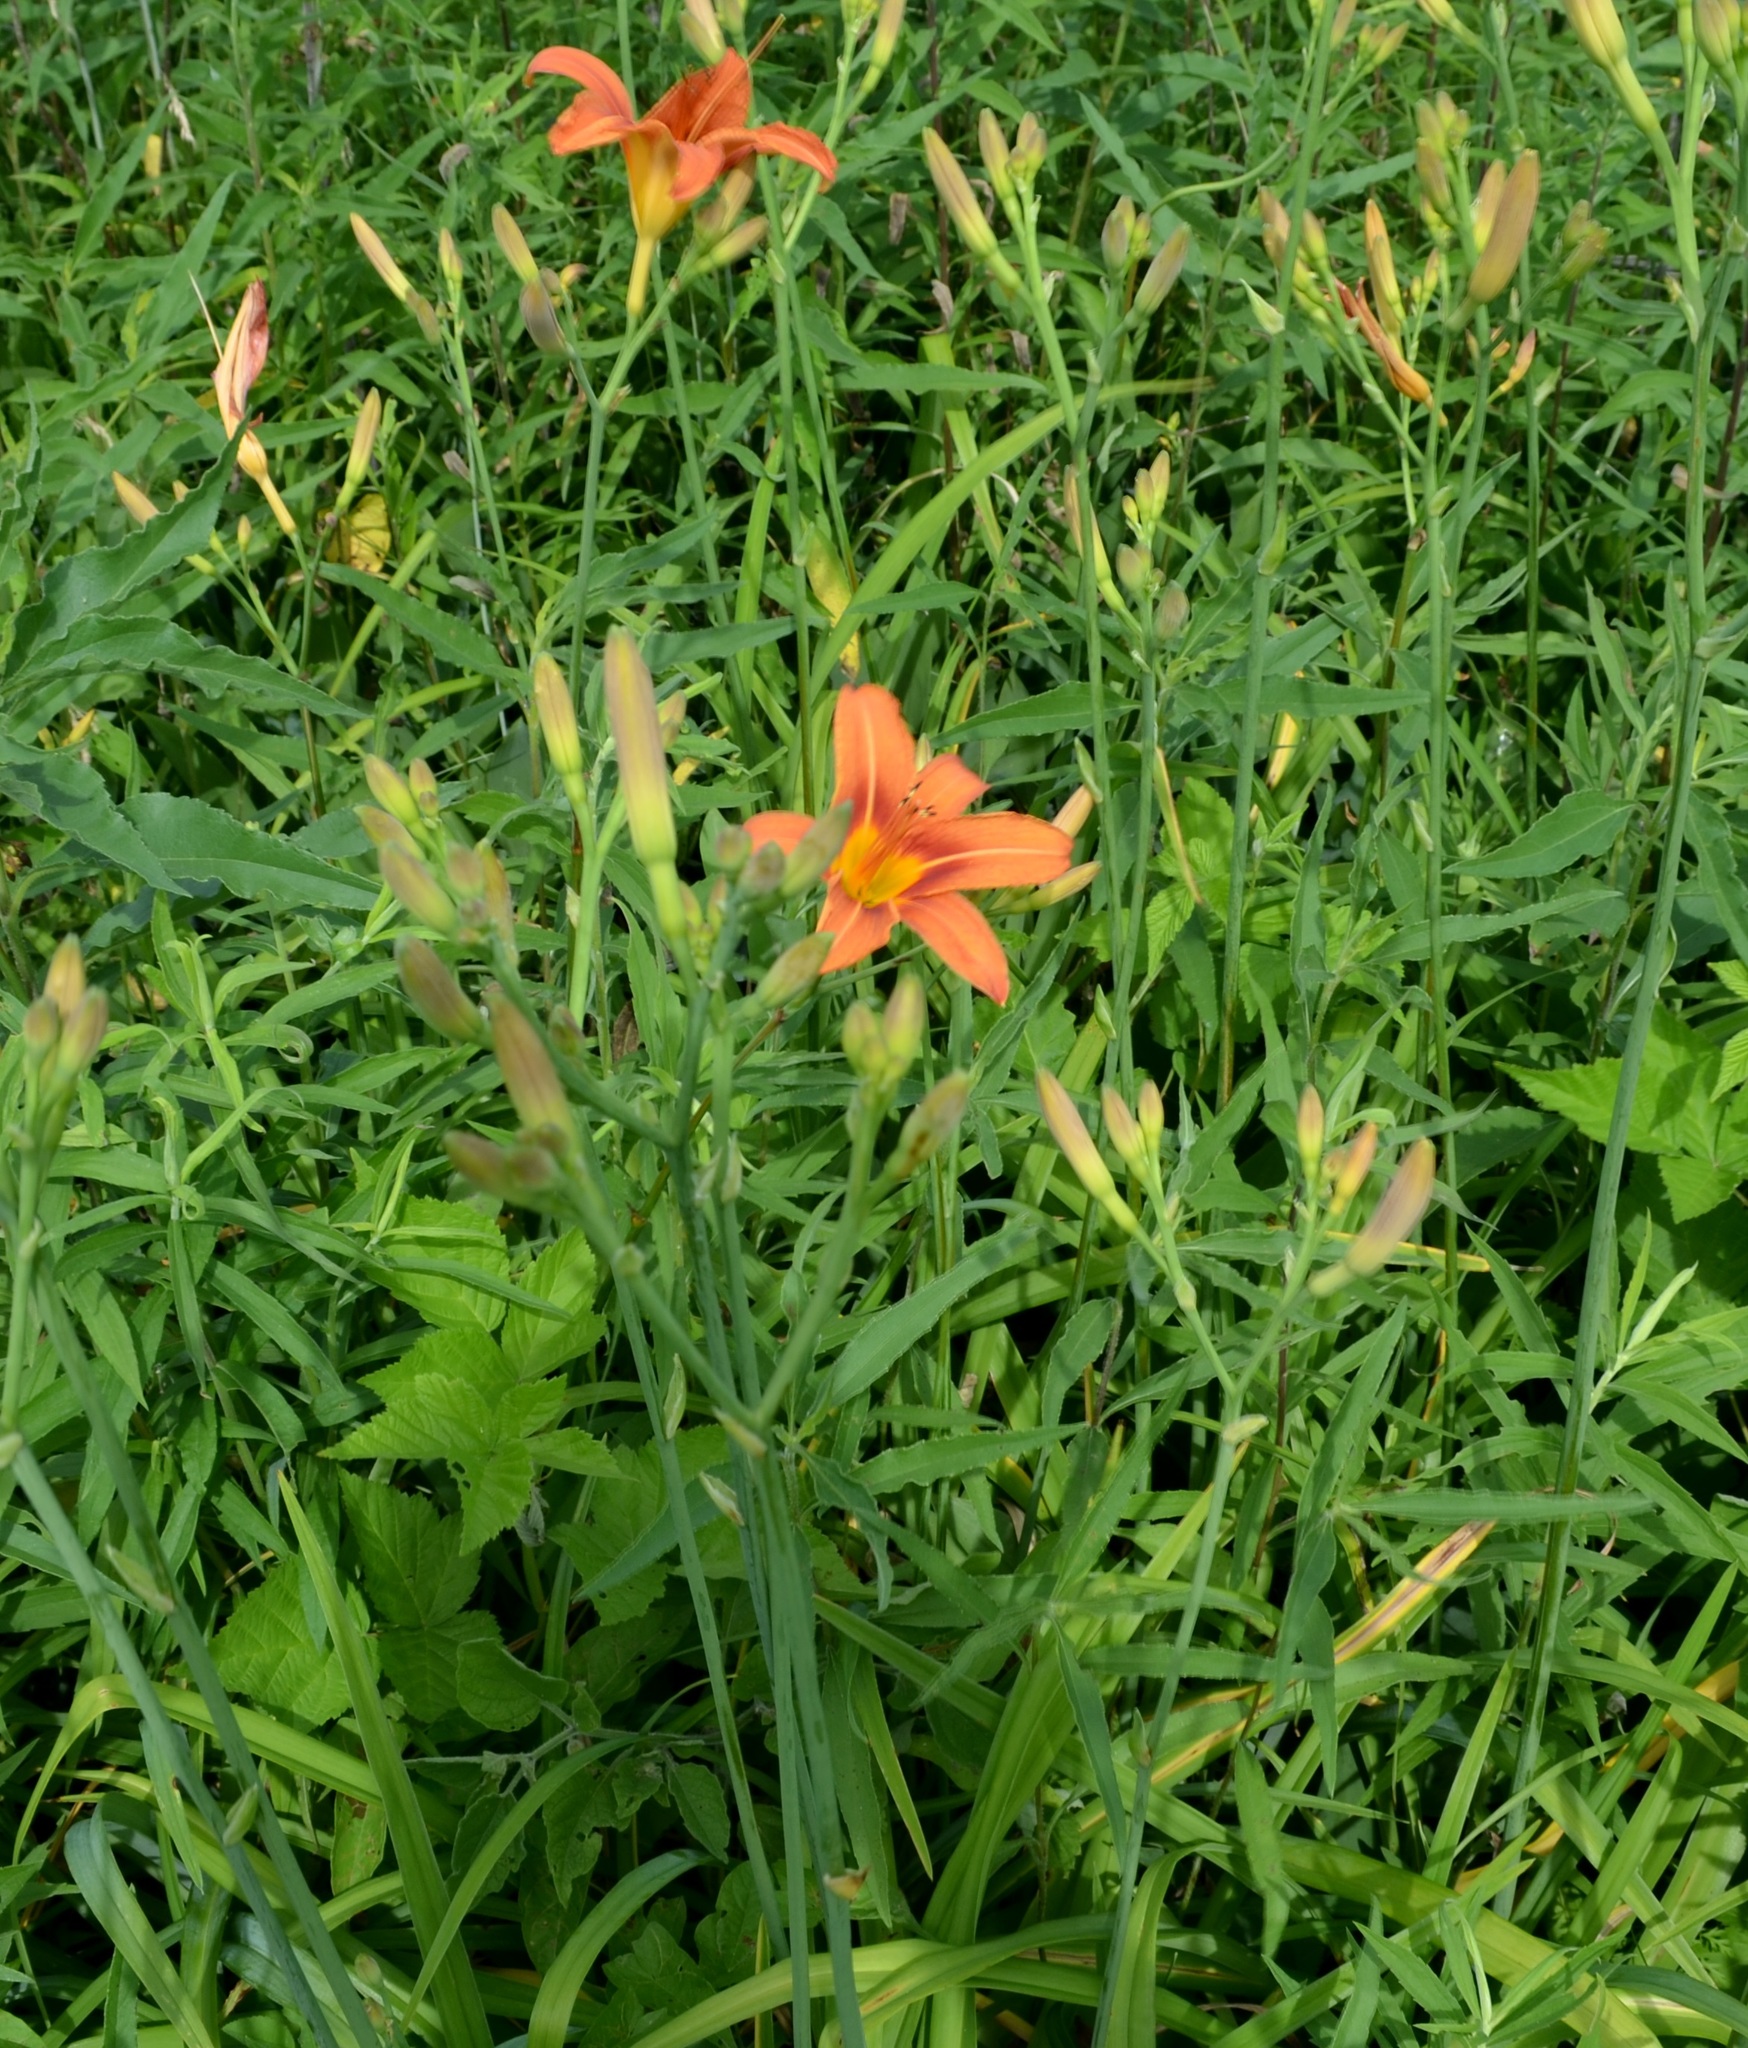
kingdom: Plantae
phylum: Tracheophyta
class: Liliopsida
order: Asparagales
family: Asphodelaceae
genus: Hemerocallis
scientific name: Hemerocallis fulva
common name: Orange day-lily
